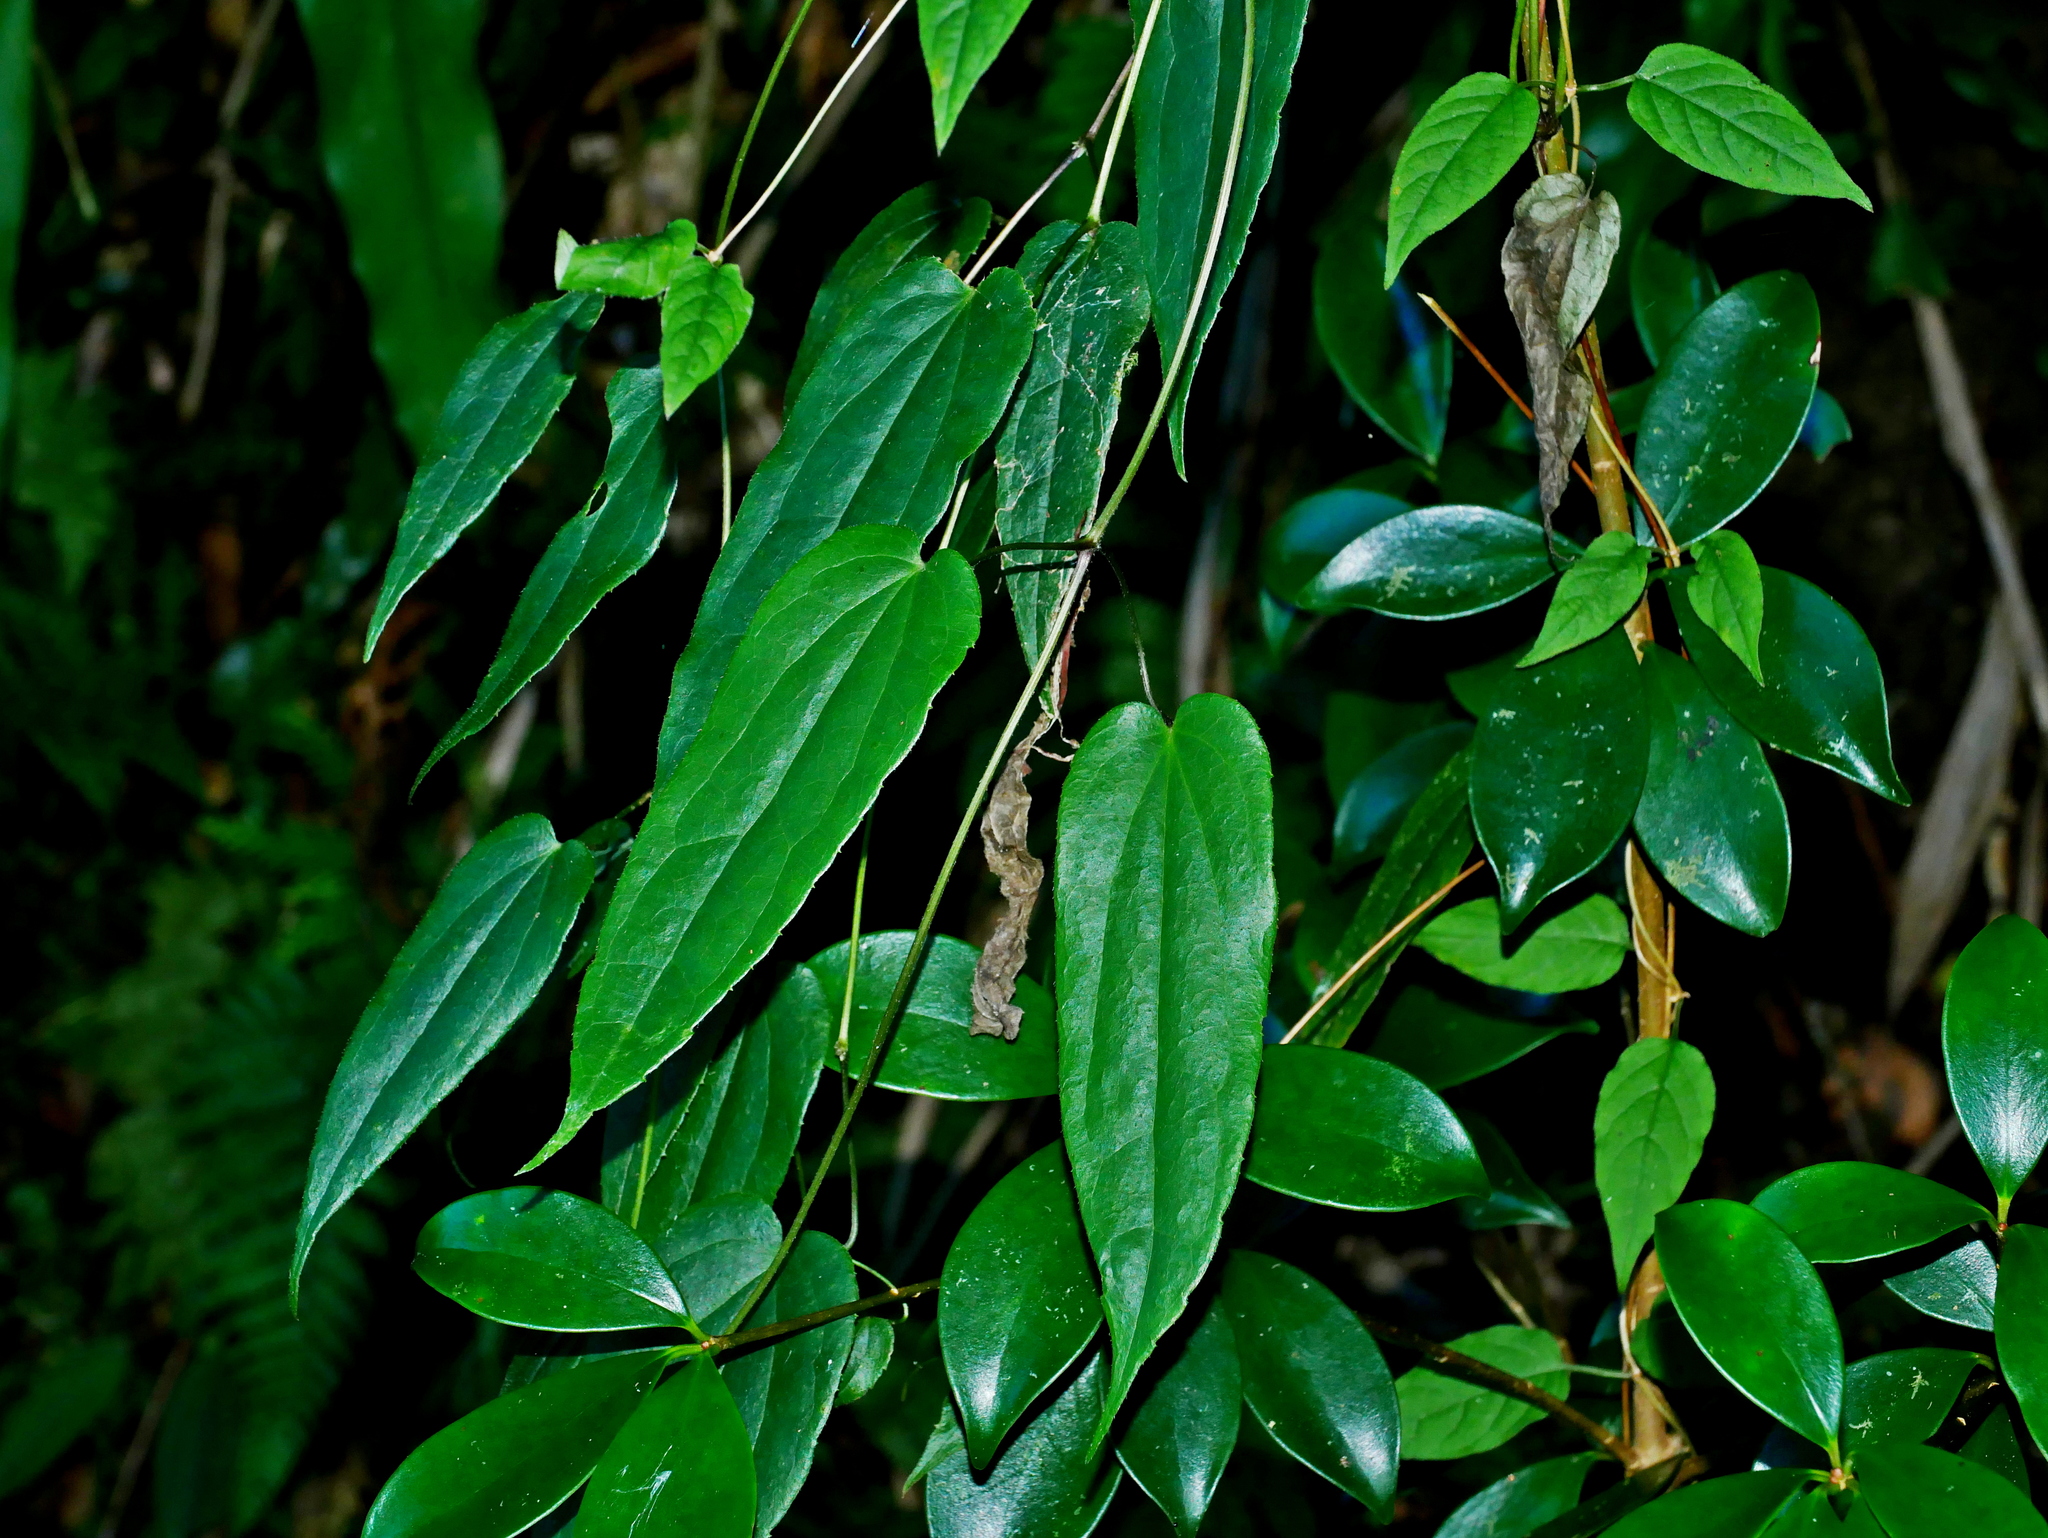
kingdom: Plantae
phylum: Tracheophyta
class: Magnoliopsida
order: Ranunculales
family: Ranunculaceae
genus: Clematis
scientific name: Clematis
